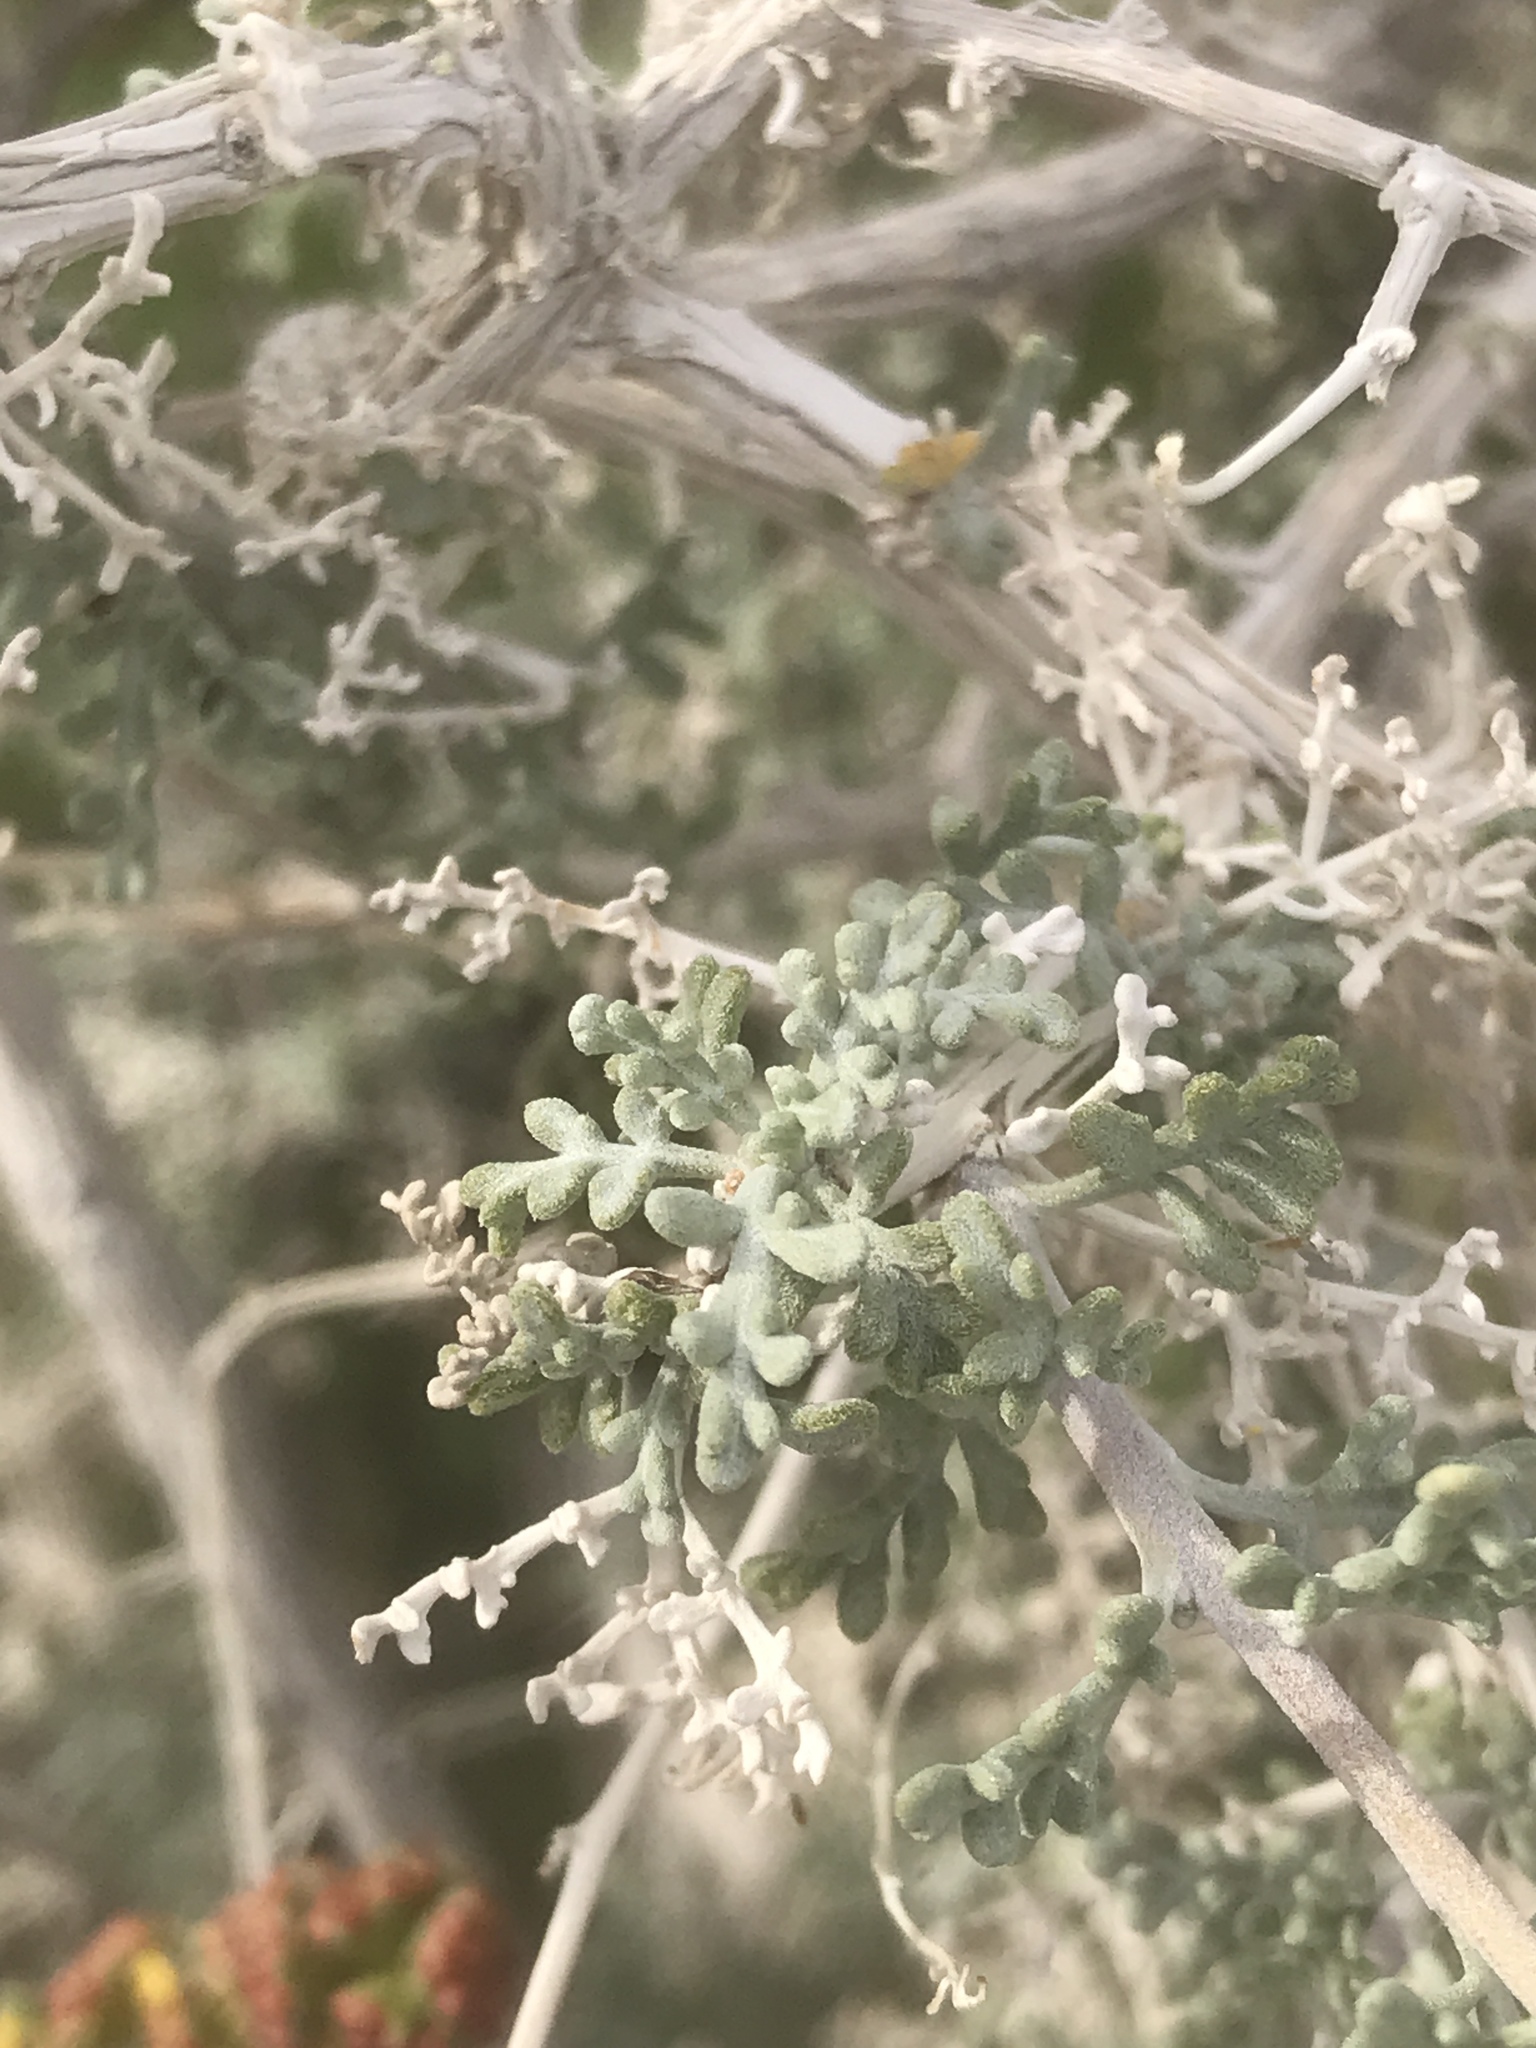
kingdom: Plantae
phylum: Tracheophyta
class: Magnoliopsida
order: Asterales
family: Asteraceae
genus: Ambrosia
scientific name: Ambrosia dumosa
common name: Bur-sage
